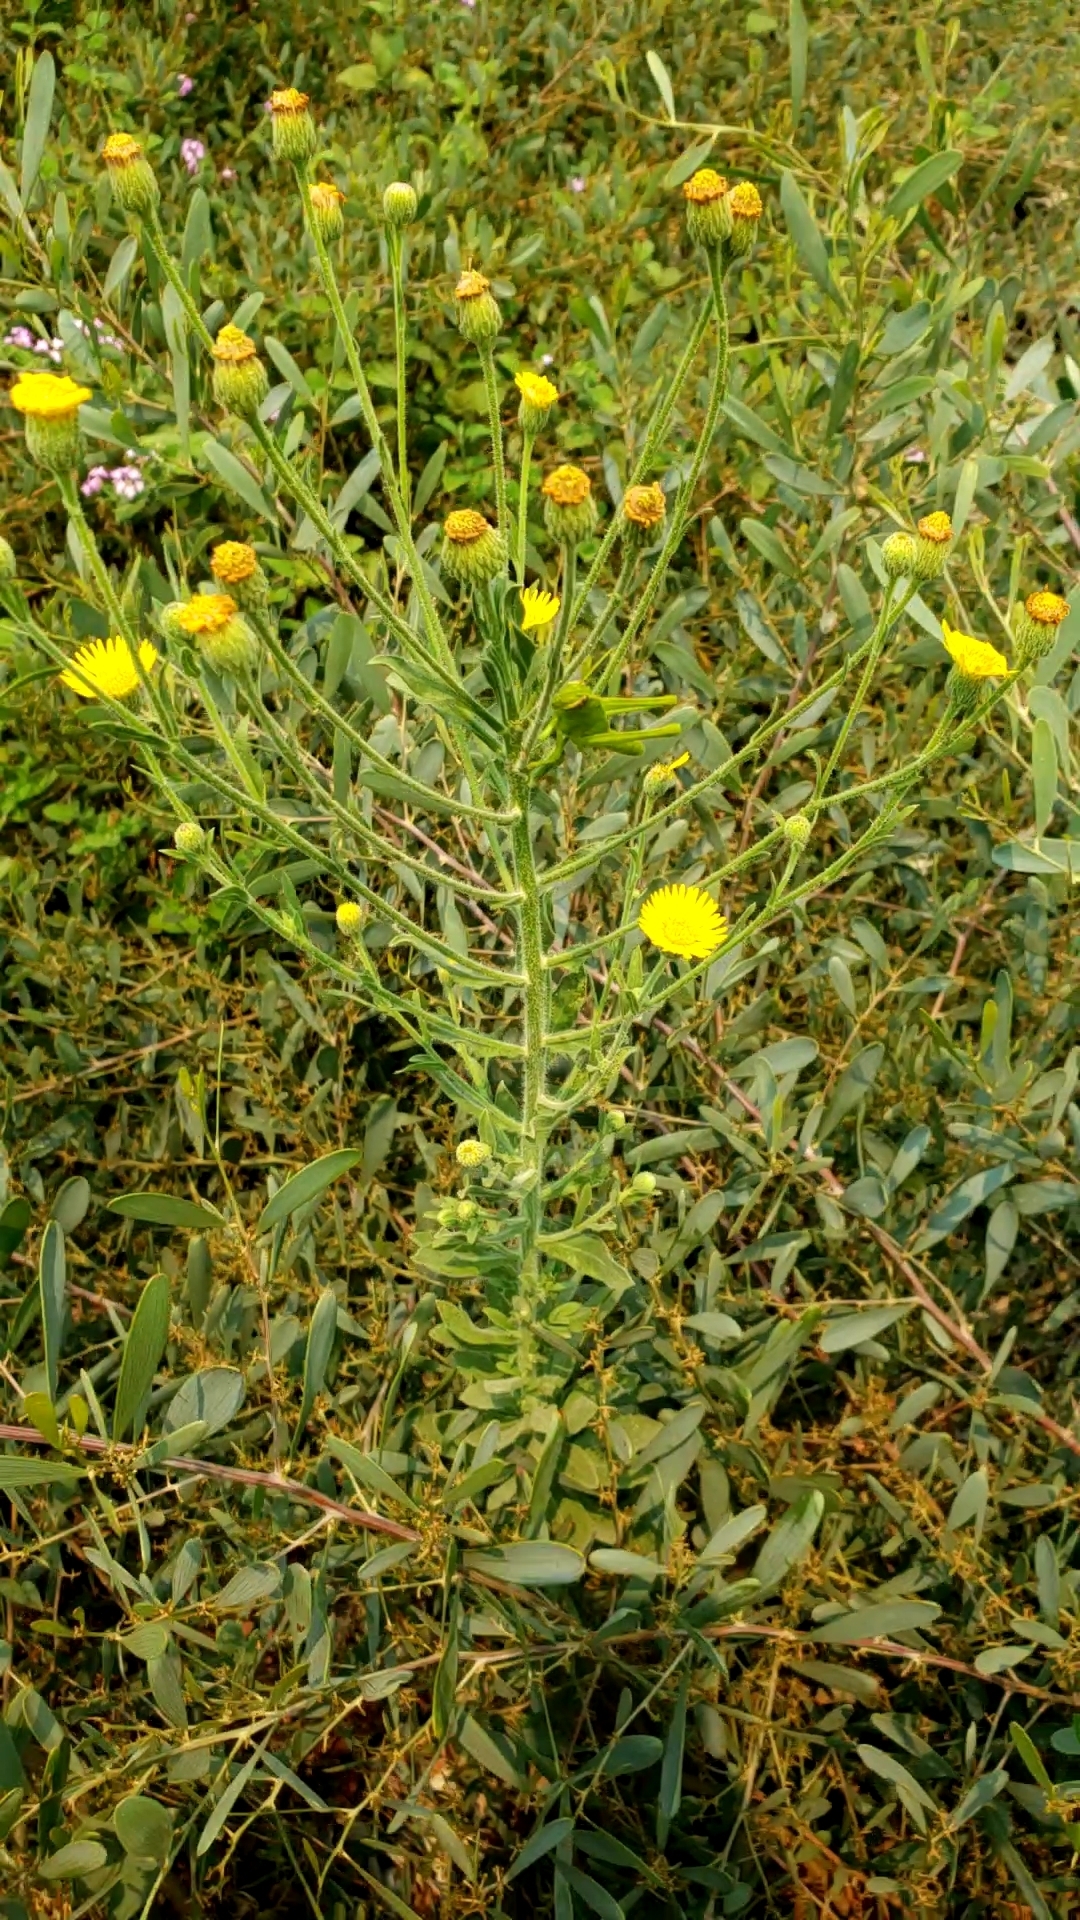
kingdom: Animalia
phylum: Arthropoda
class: Insecta
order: Orthoptera
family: Acrididae
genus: Schistocerca
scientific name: Schistocerca nitens
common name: Vagrant grasshopper
